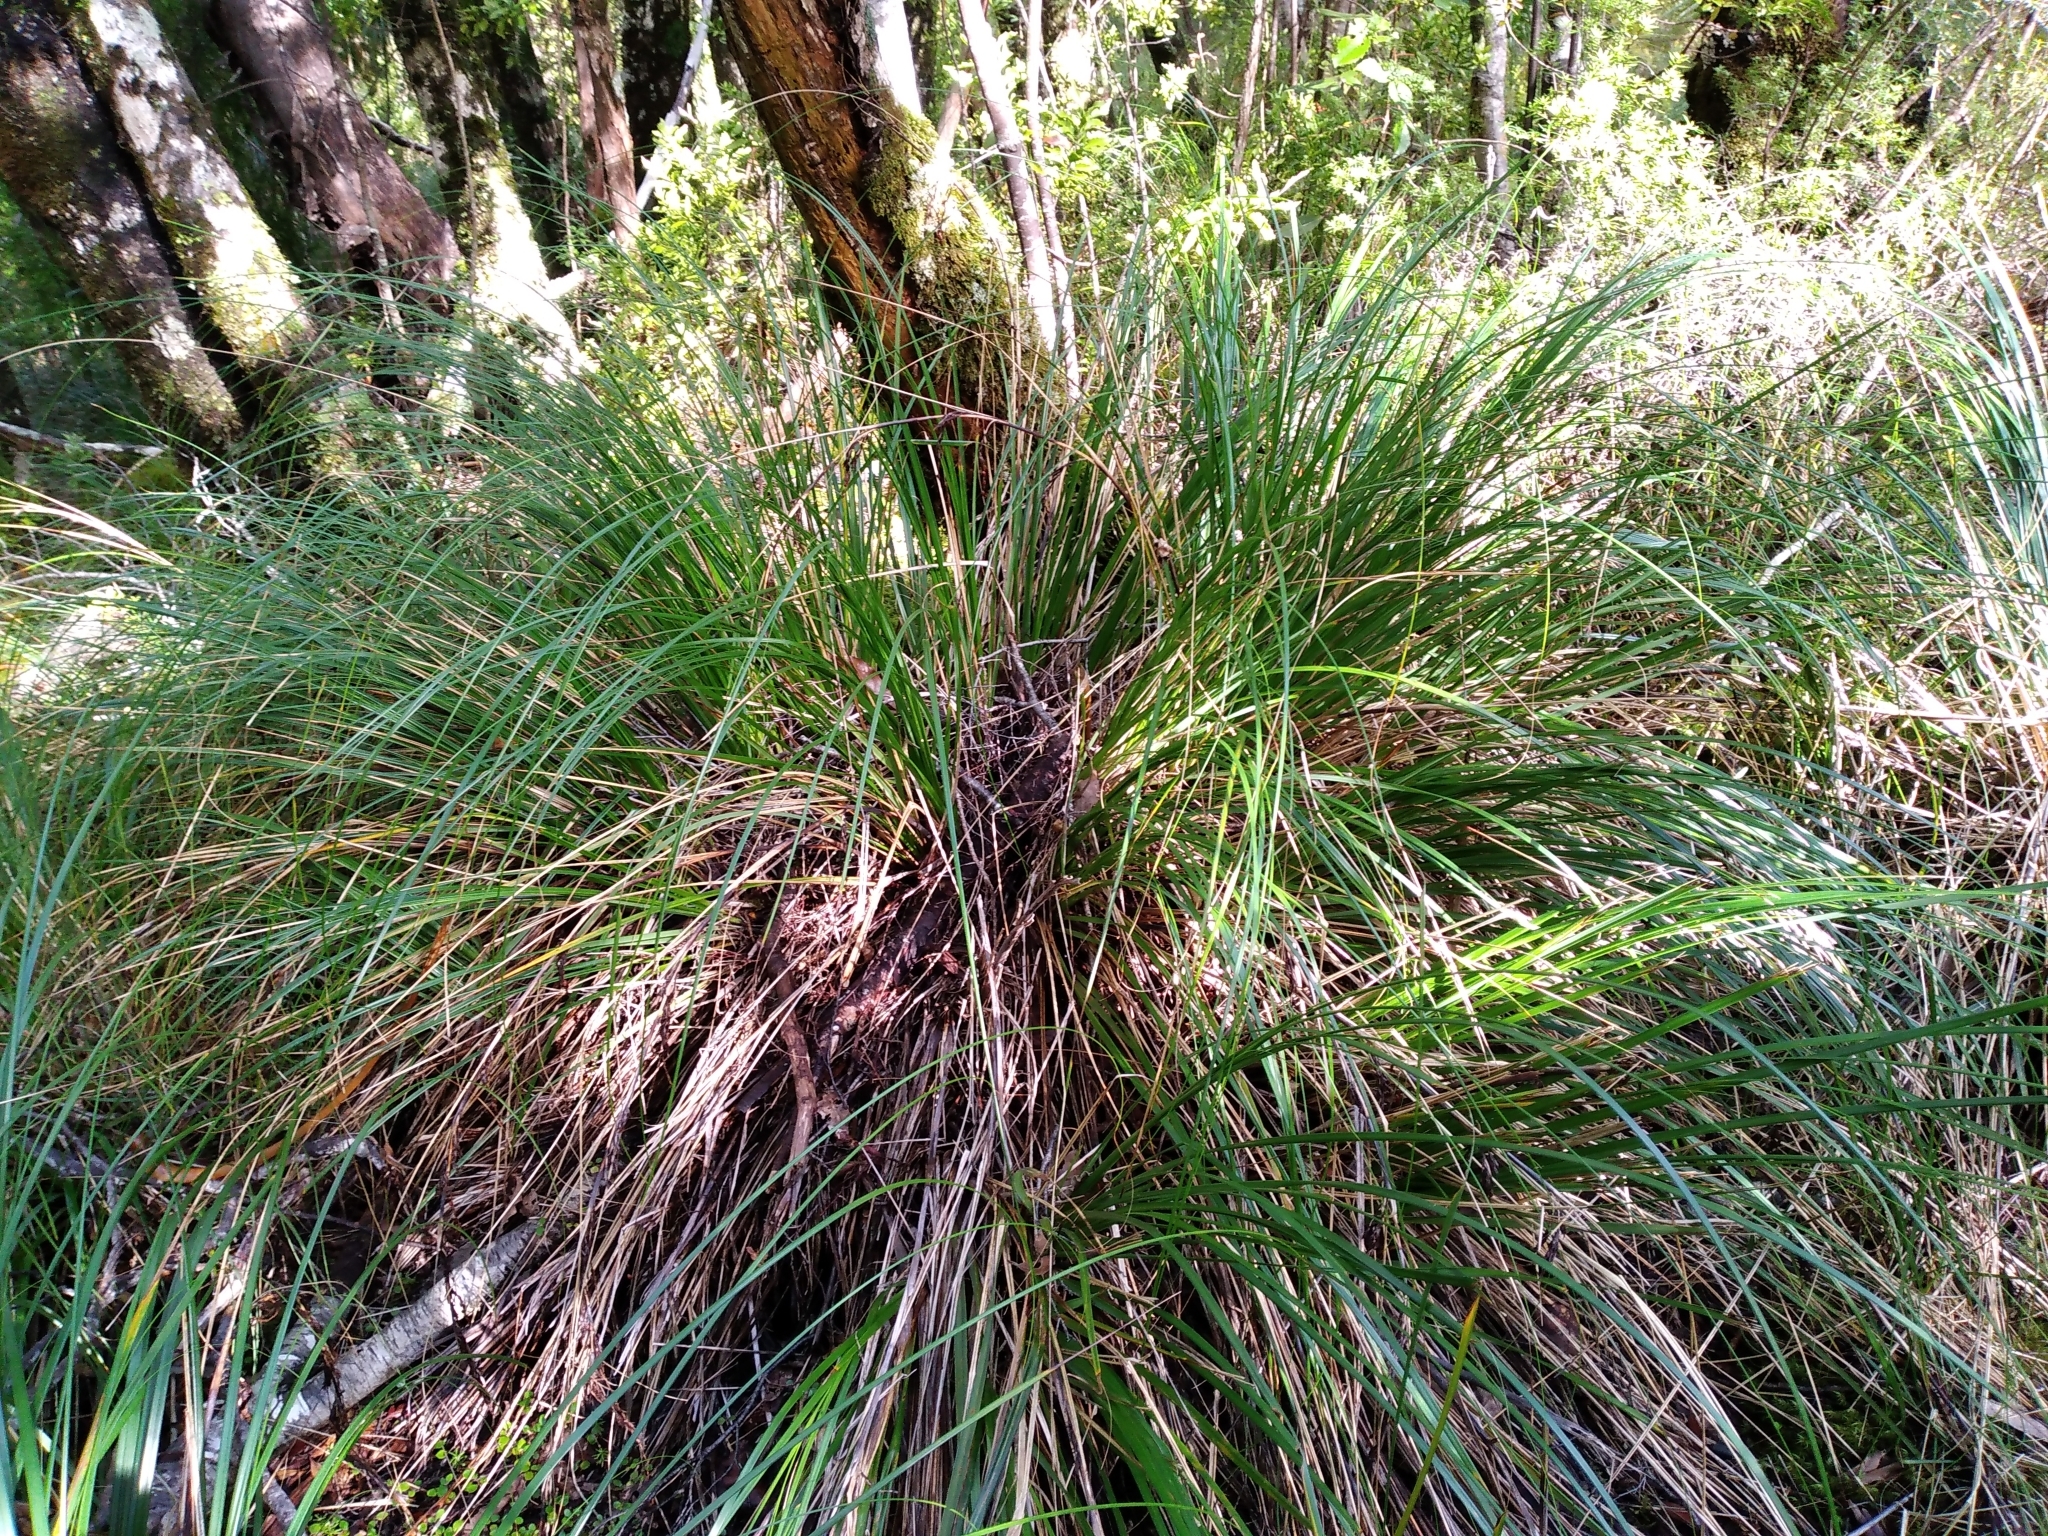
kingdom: Plantae
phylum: Tracheophyta
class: Liliopsida
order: Poales
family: Cyperaceae
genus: Gahnia
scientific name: Gahnia procera
